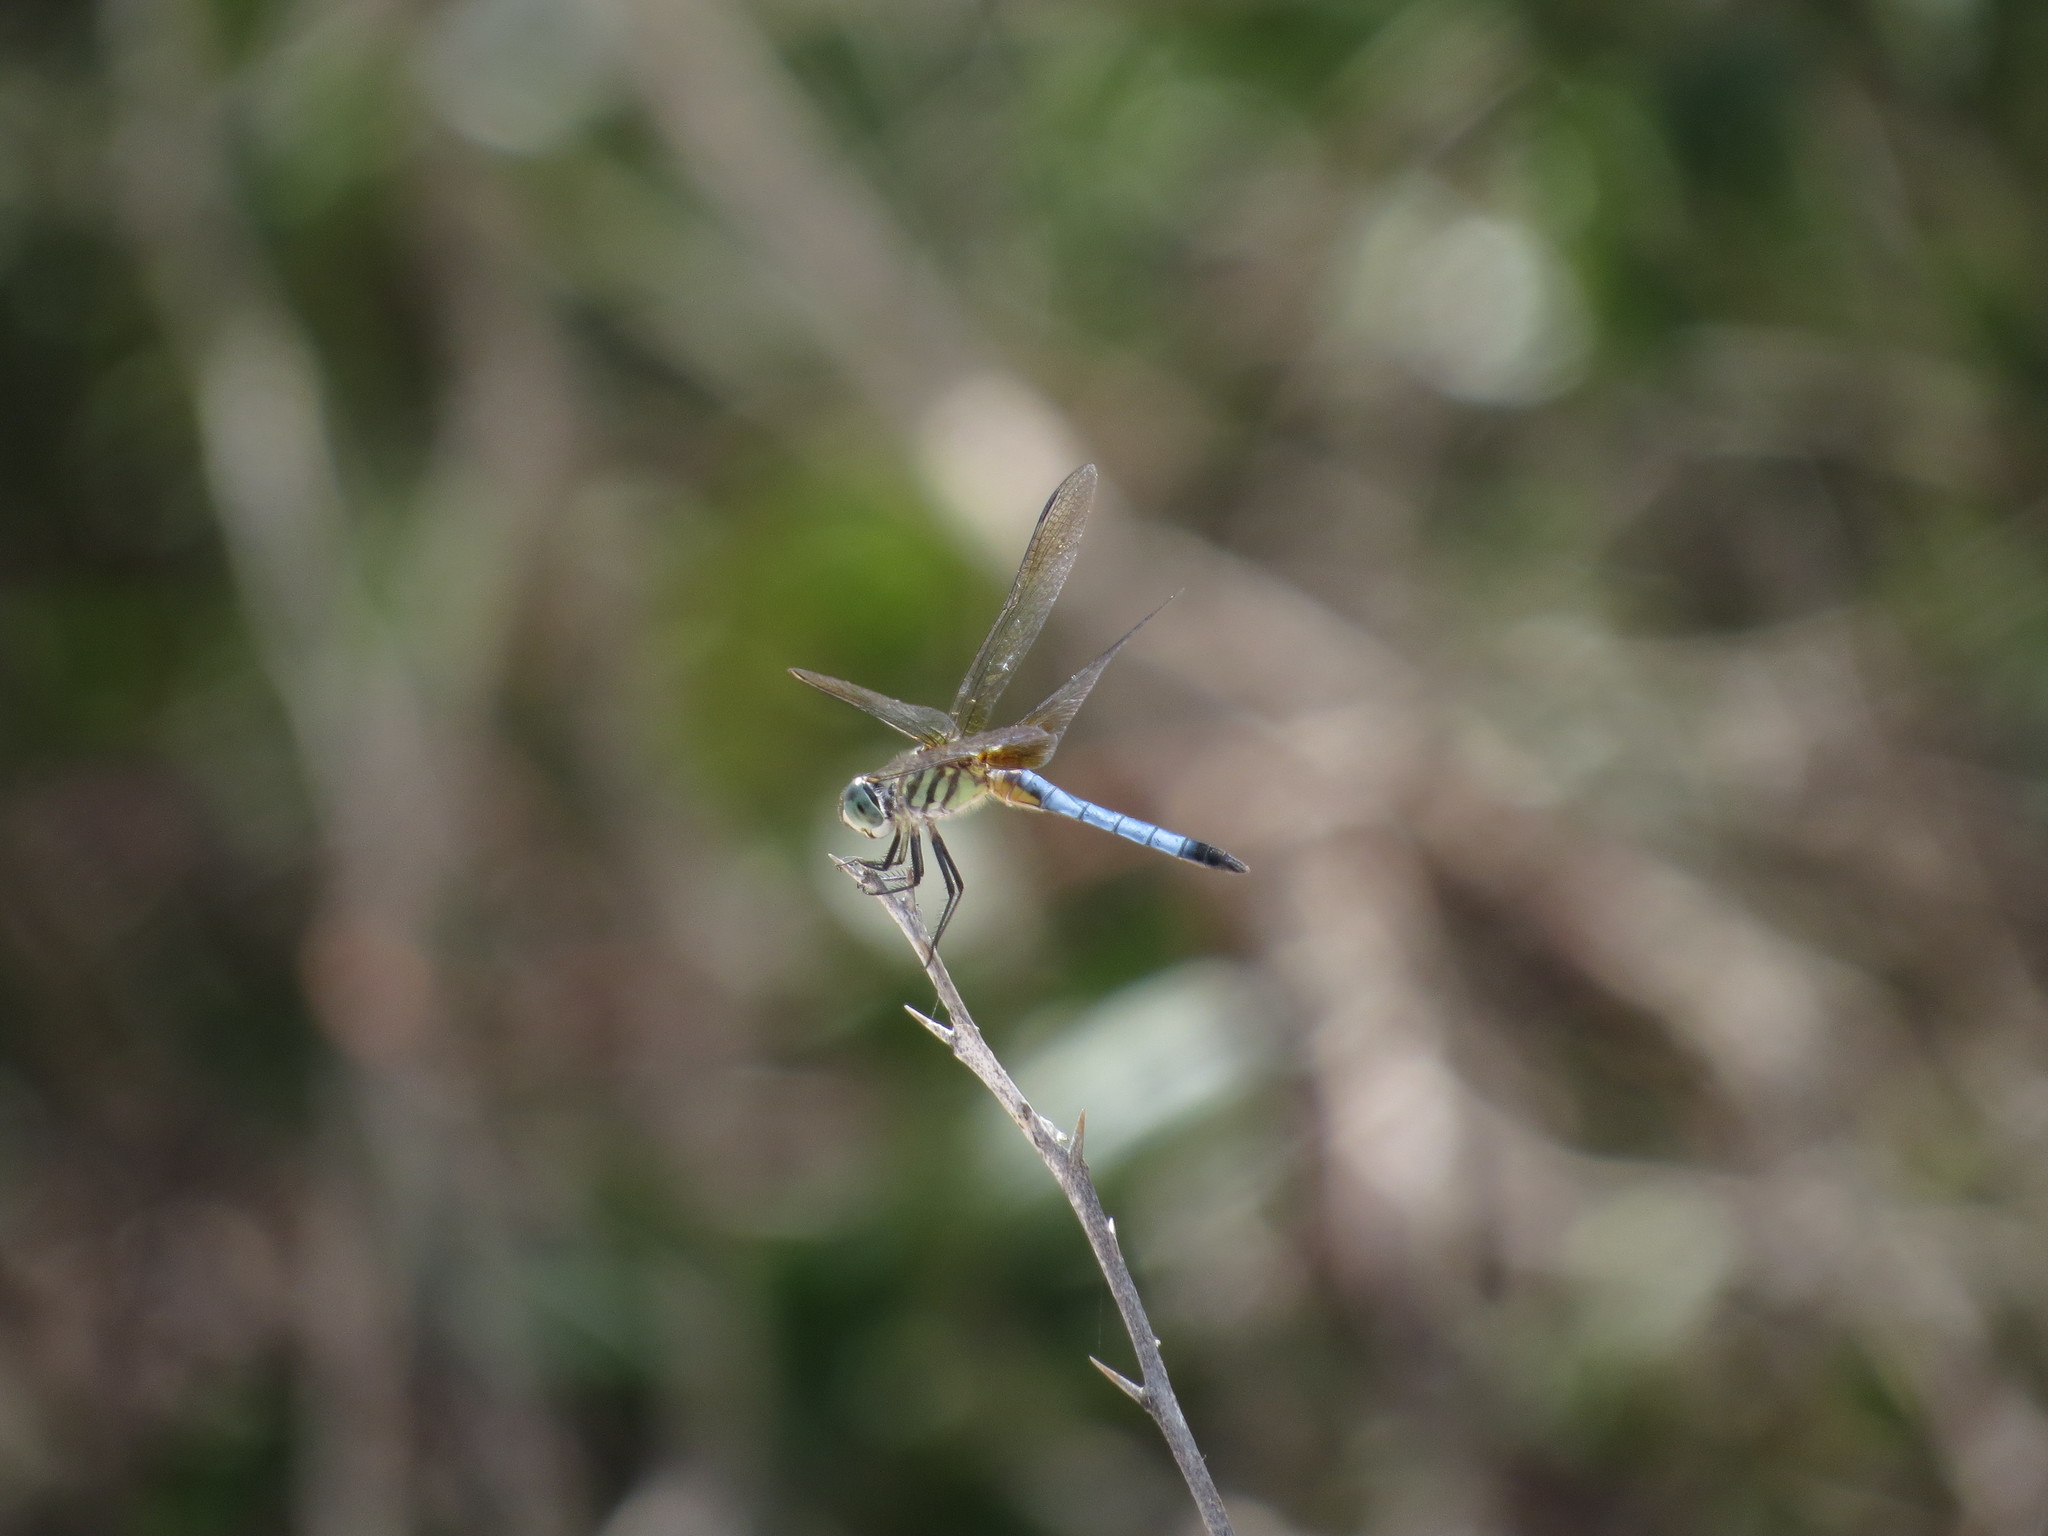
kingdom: Animalia
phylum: Arthropoda
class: Insecta
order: Odonata
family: Libellulidae
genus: Pachydiplax
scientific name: Pachydiplax longipennis
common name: Blue dasher
